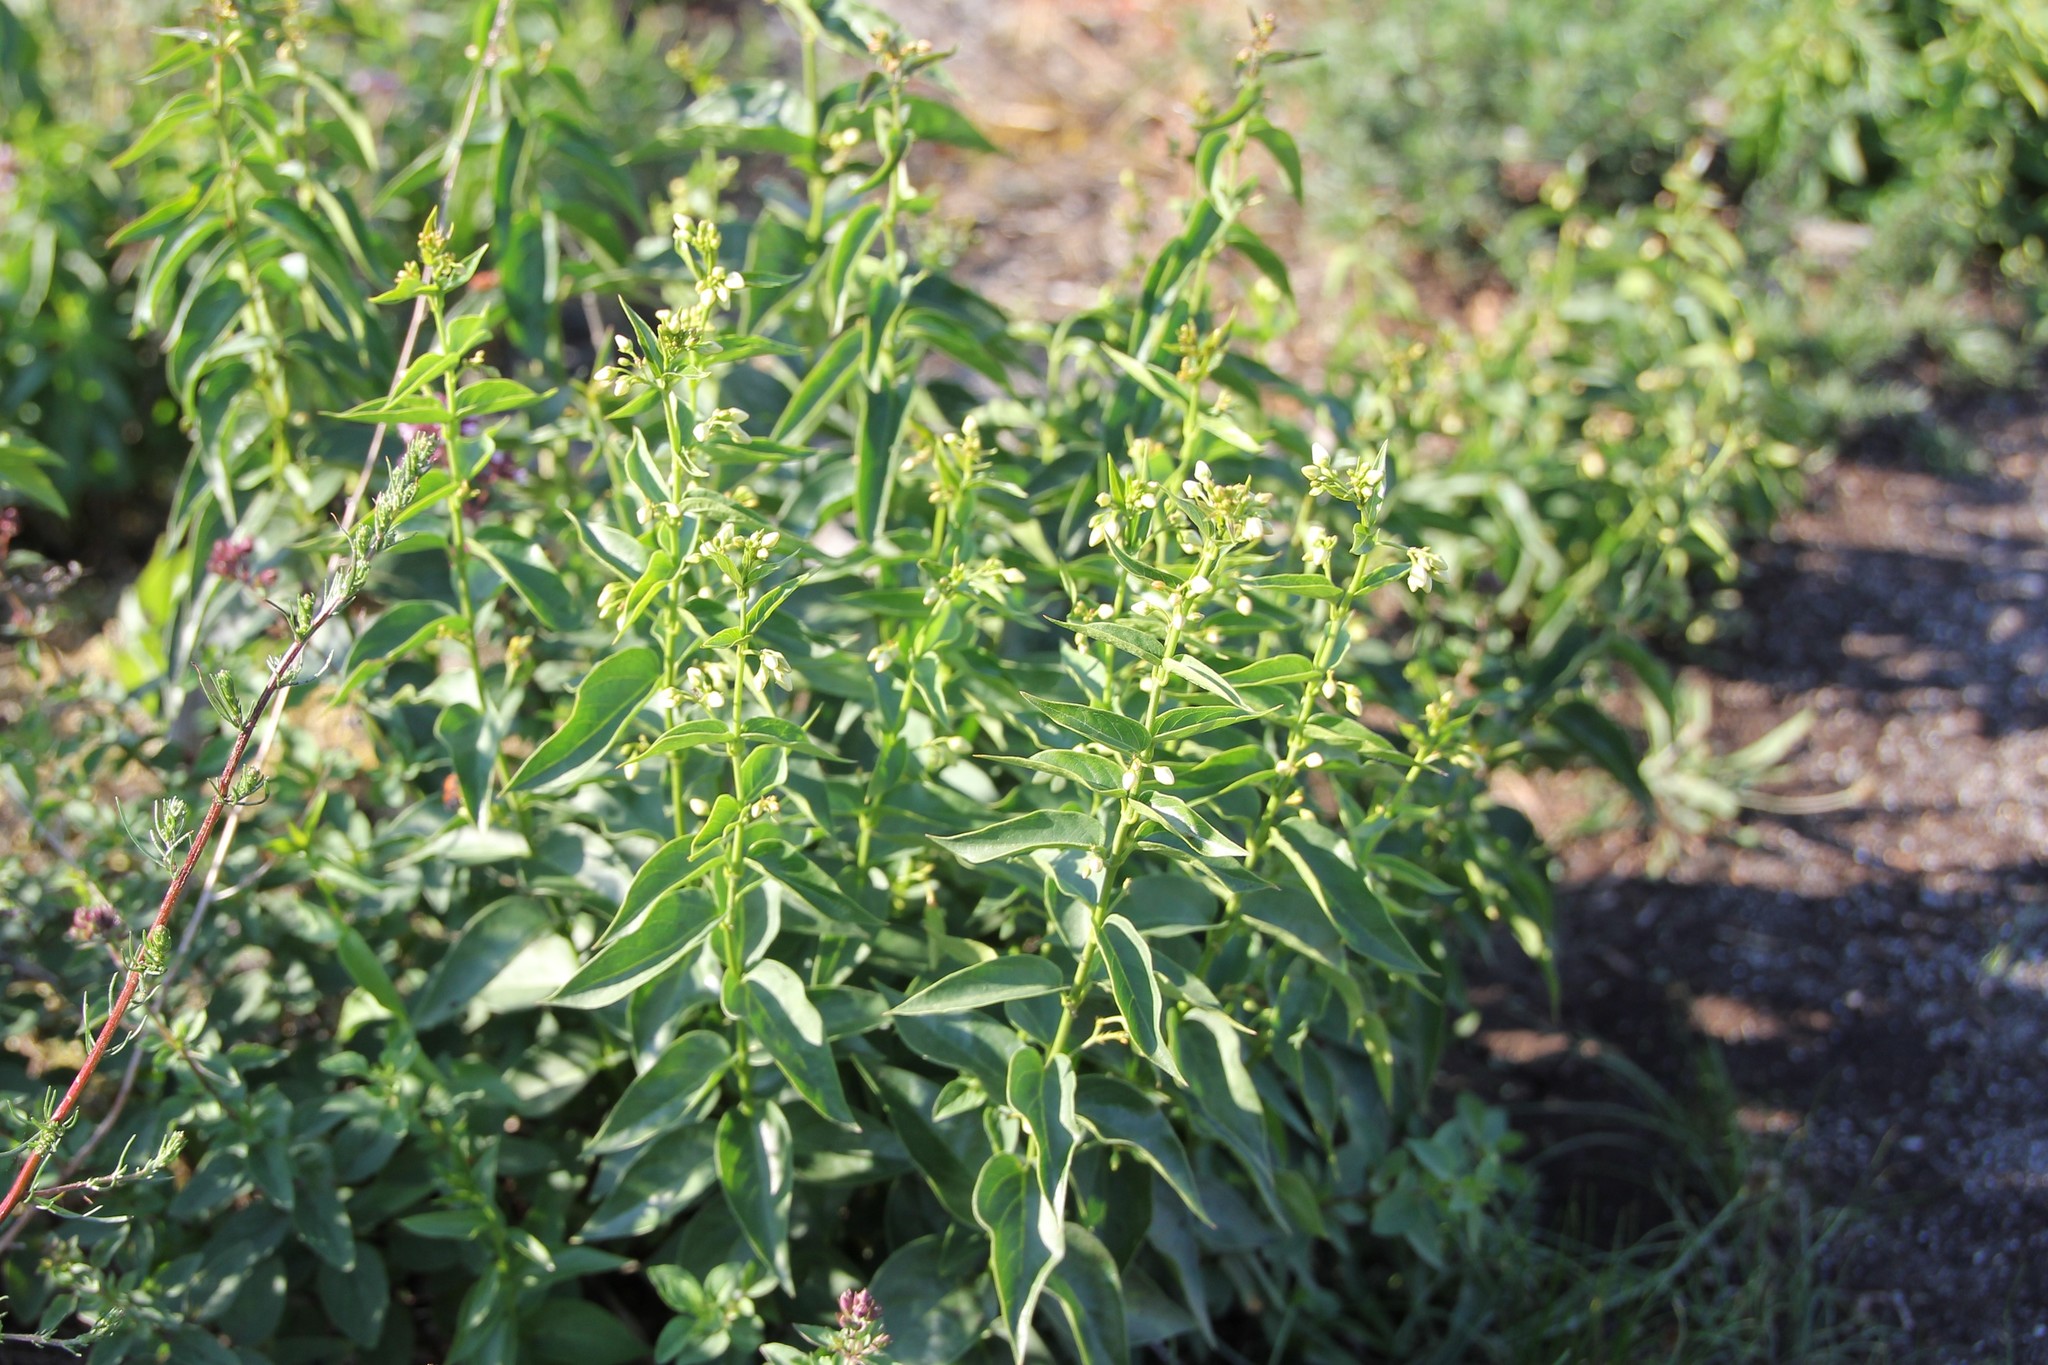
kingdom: Plantae
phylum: Tracheophyta
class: Magnoliopsida
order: Gentianales
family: Apocynaceae
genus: Vincetoxicum
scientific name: Vincetoxicum hirundinaria
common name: White swallowwort
